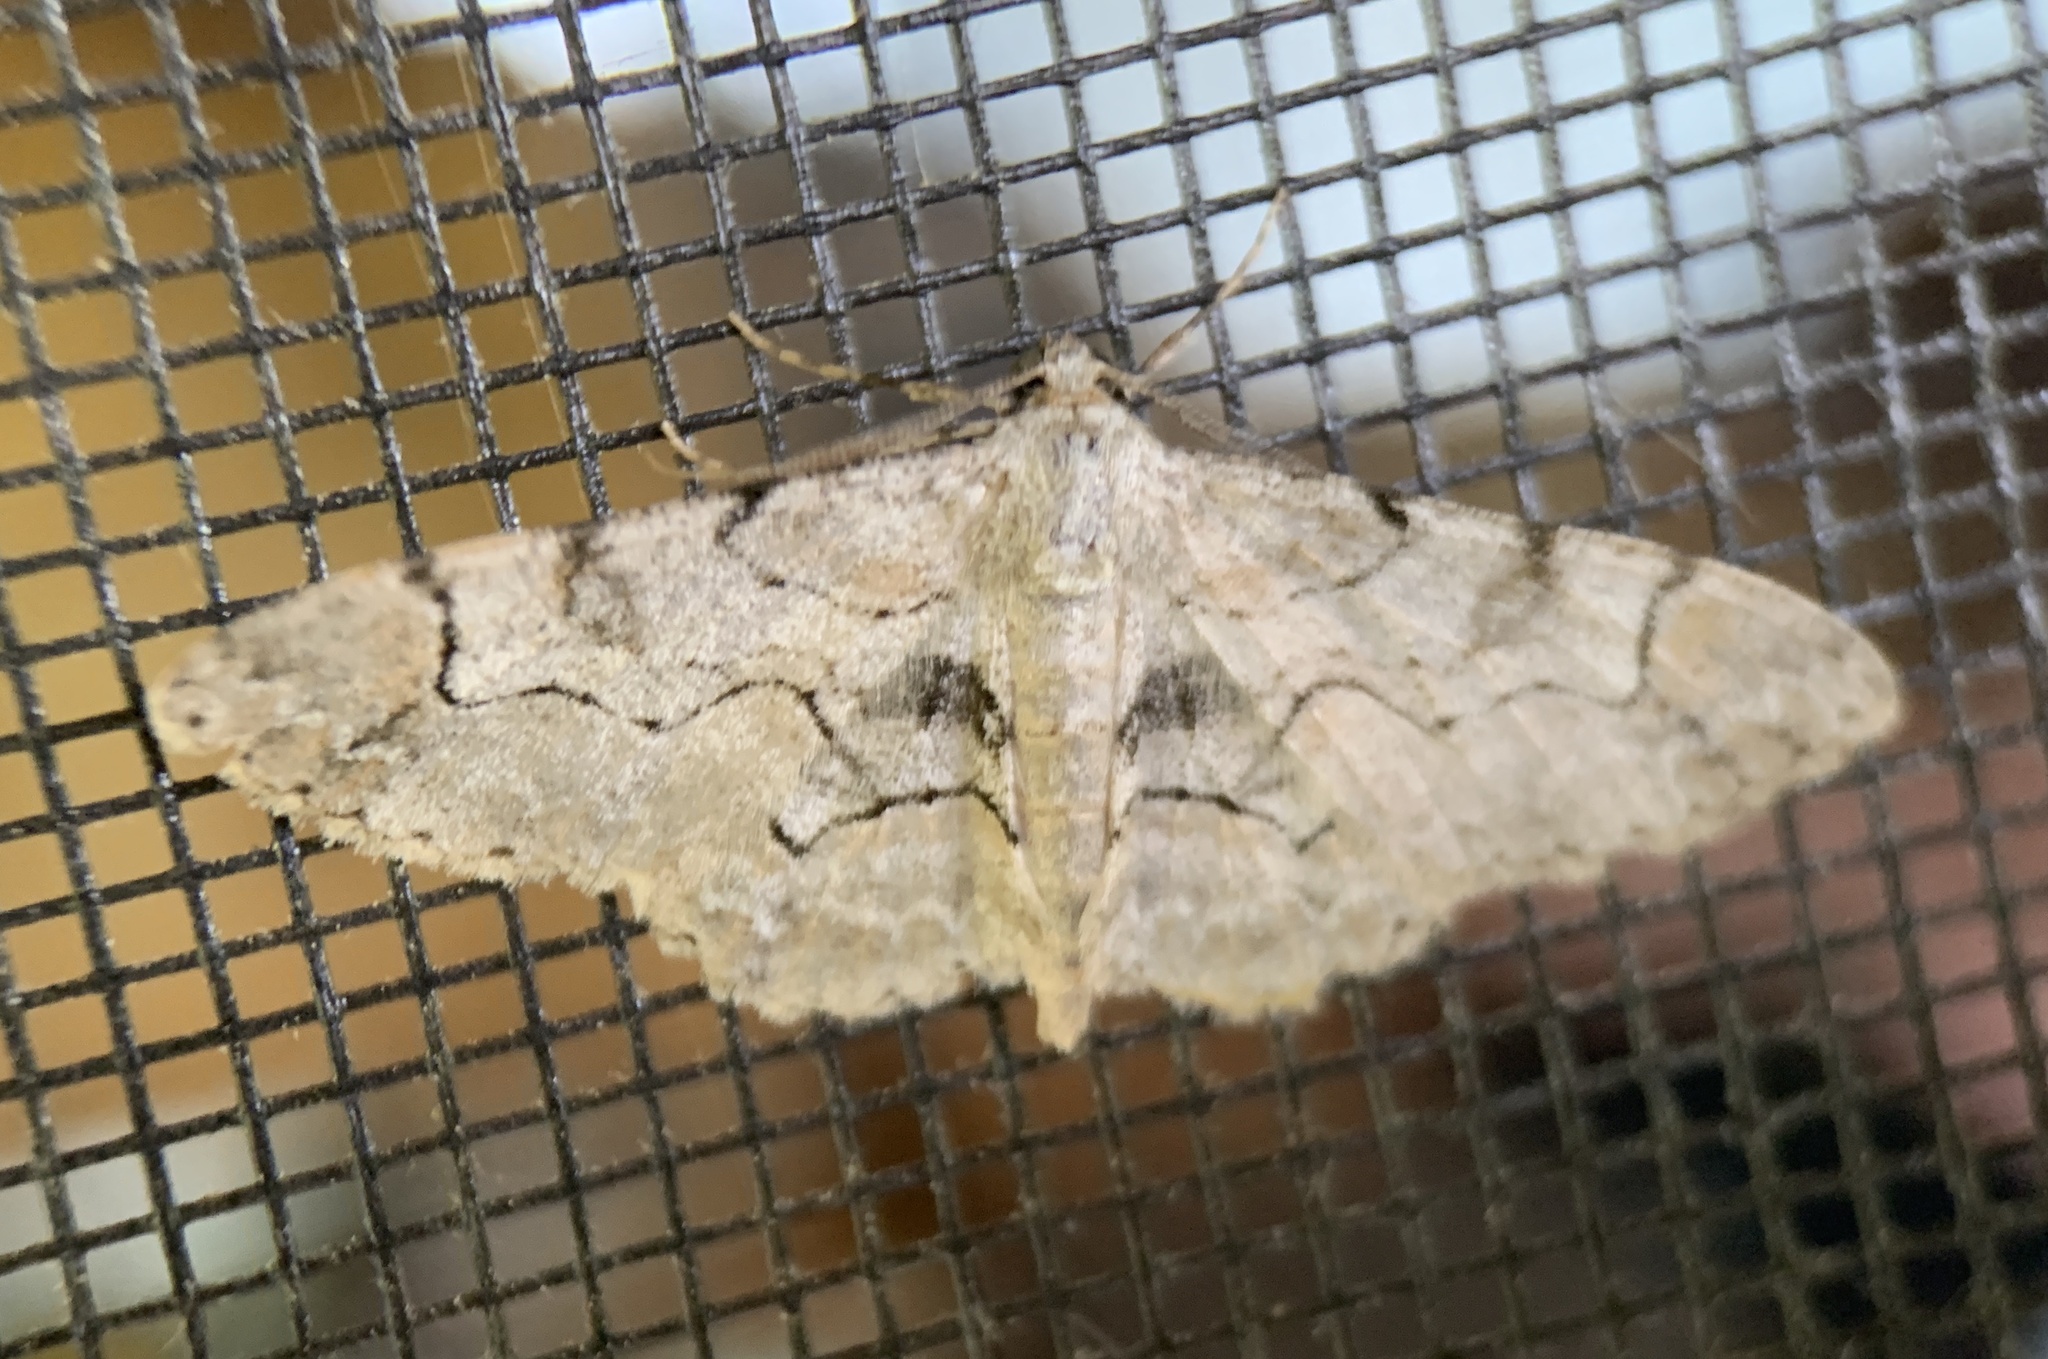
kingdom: Animalia
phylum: Arthropoda
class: Insecta
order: Lepidoptera
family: Geometridae
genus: Iridopsis
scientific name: Iridopsis larvaria
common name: Bent-line gray
